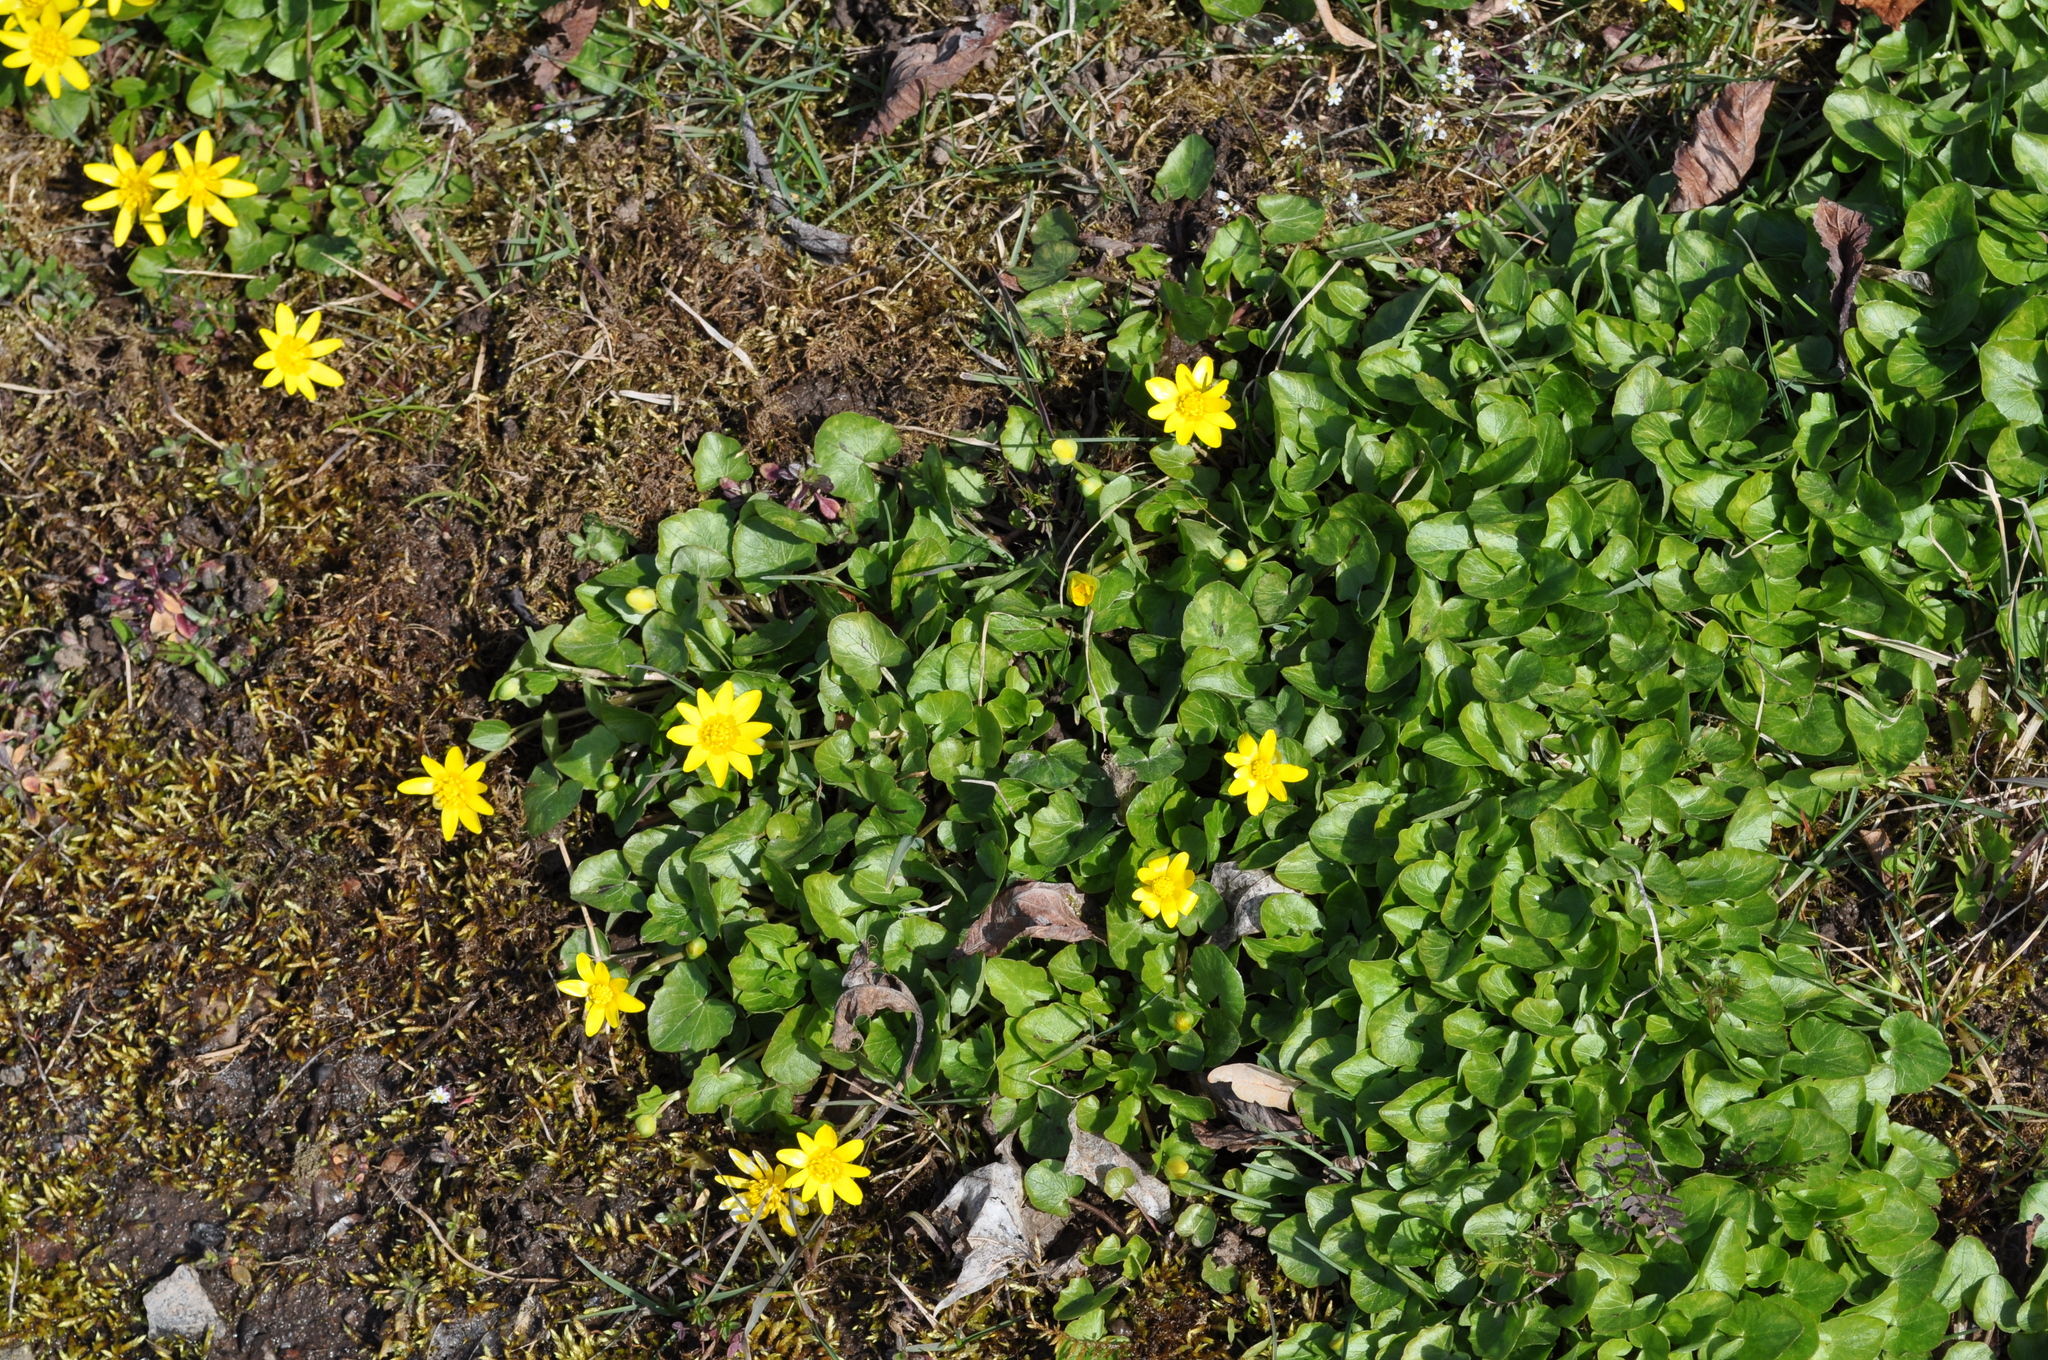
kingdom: Plantae
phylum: Tracheophyta
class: Magnoliopsida
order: Ranunculales
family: Ranunculaceae
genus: Ficaria
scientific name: Ficaria verna
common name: Lesser celandine
